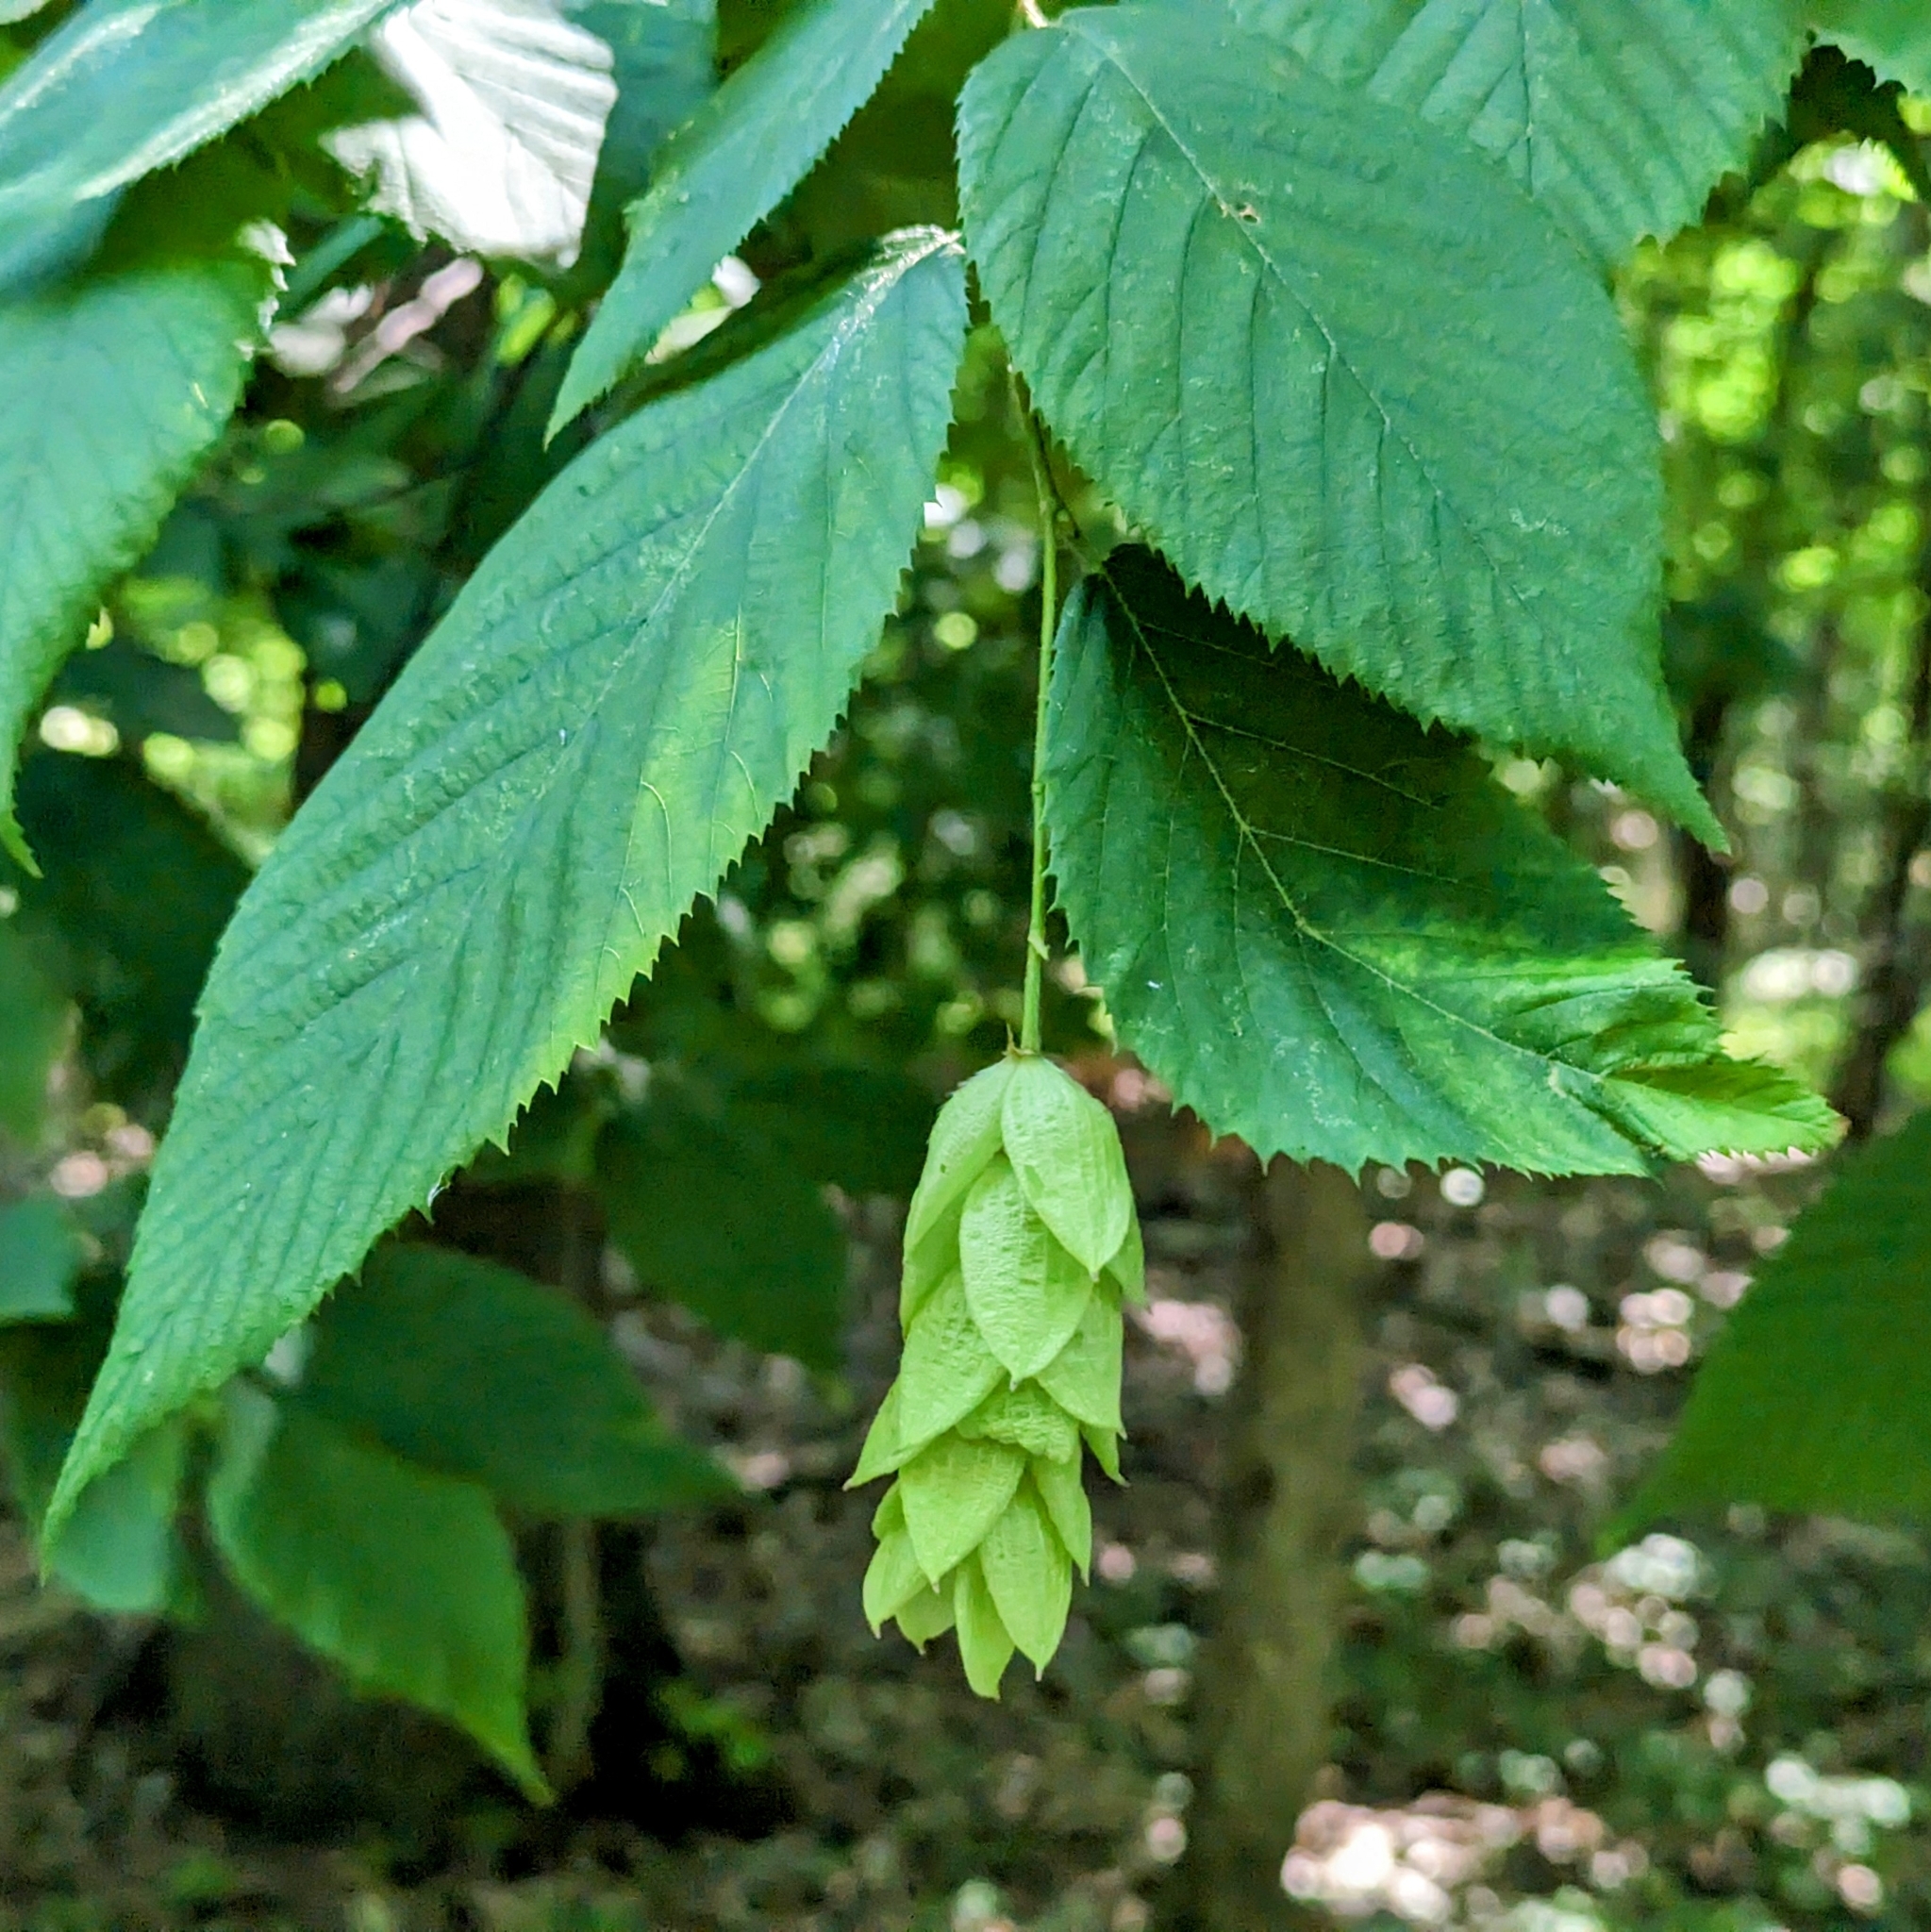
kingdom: Plantae
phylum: Tracheophyta
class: Magnoliopsida
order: Fagales
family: Betulaceae
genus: Ostrya
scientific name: Ostrya virginiana
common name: Ironwood
